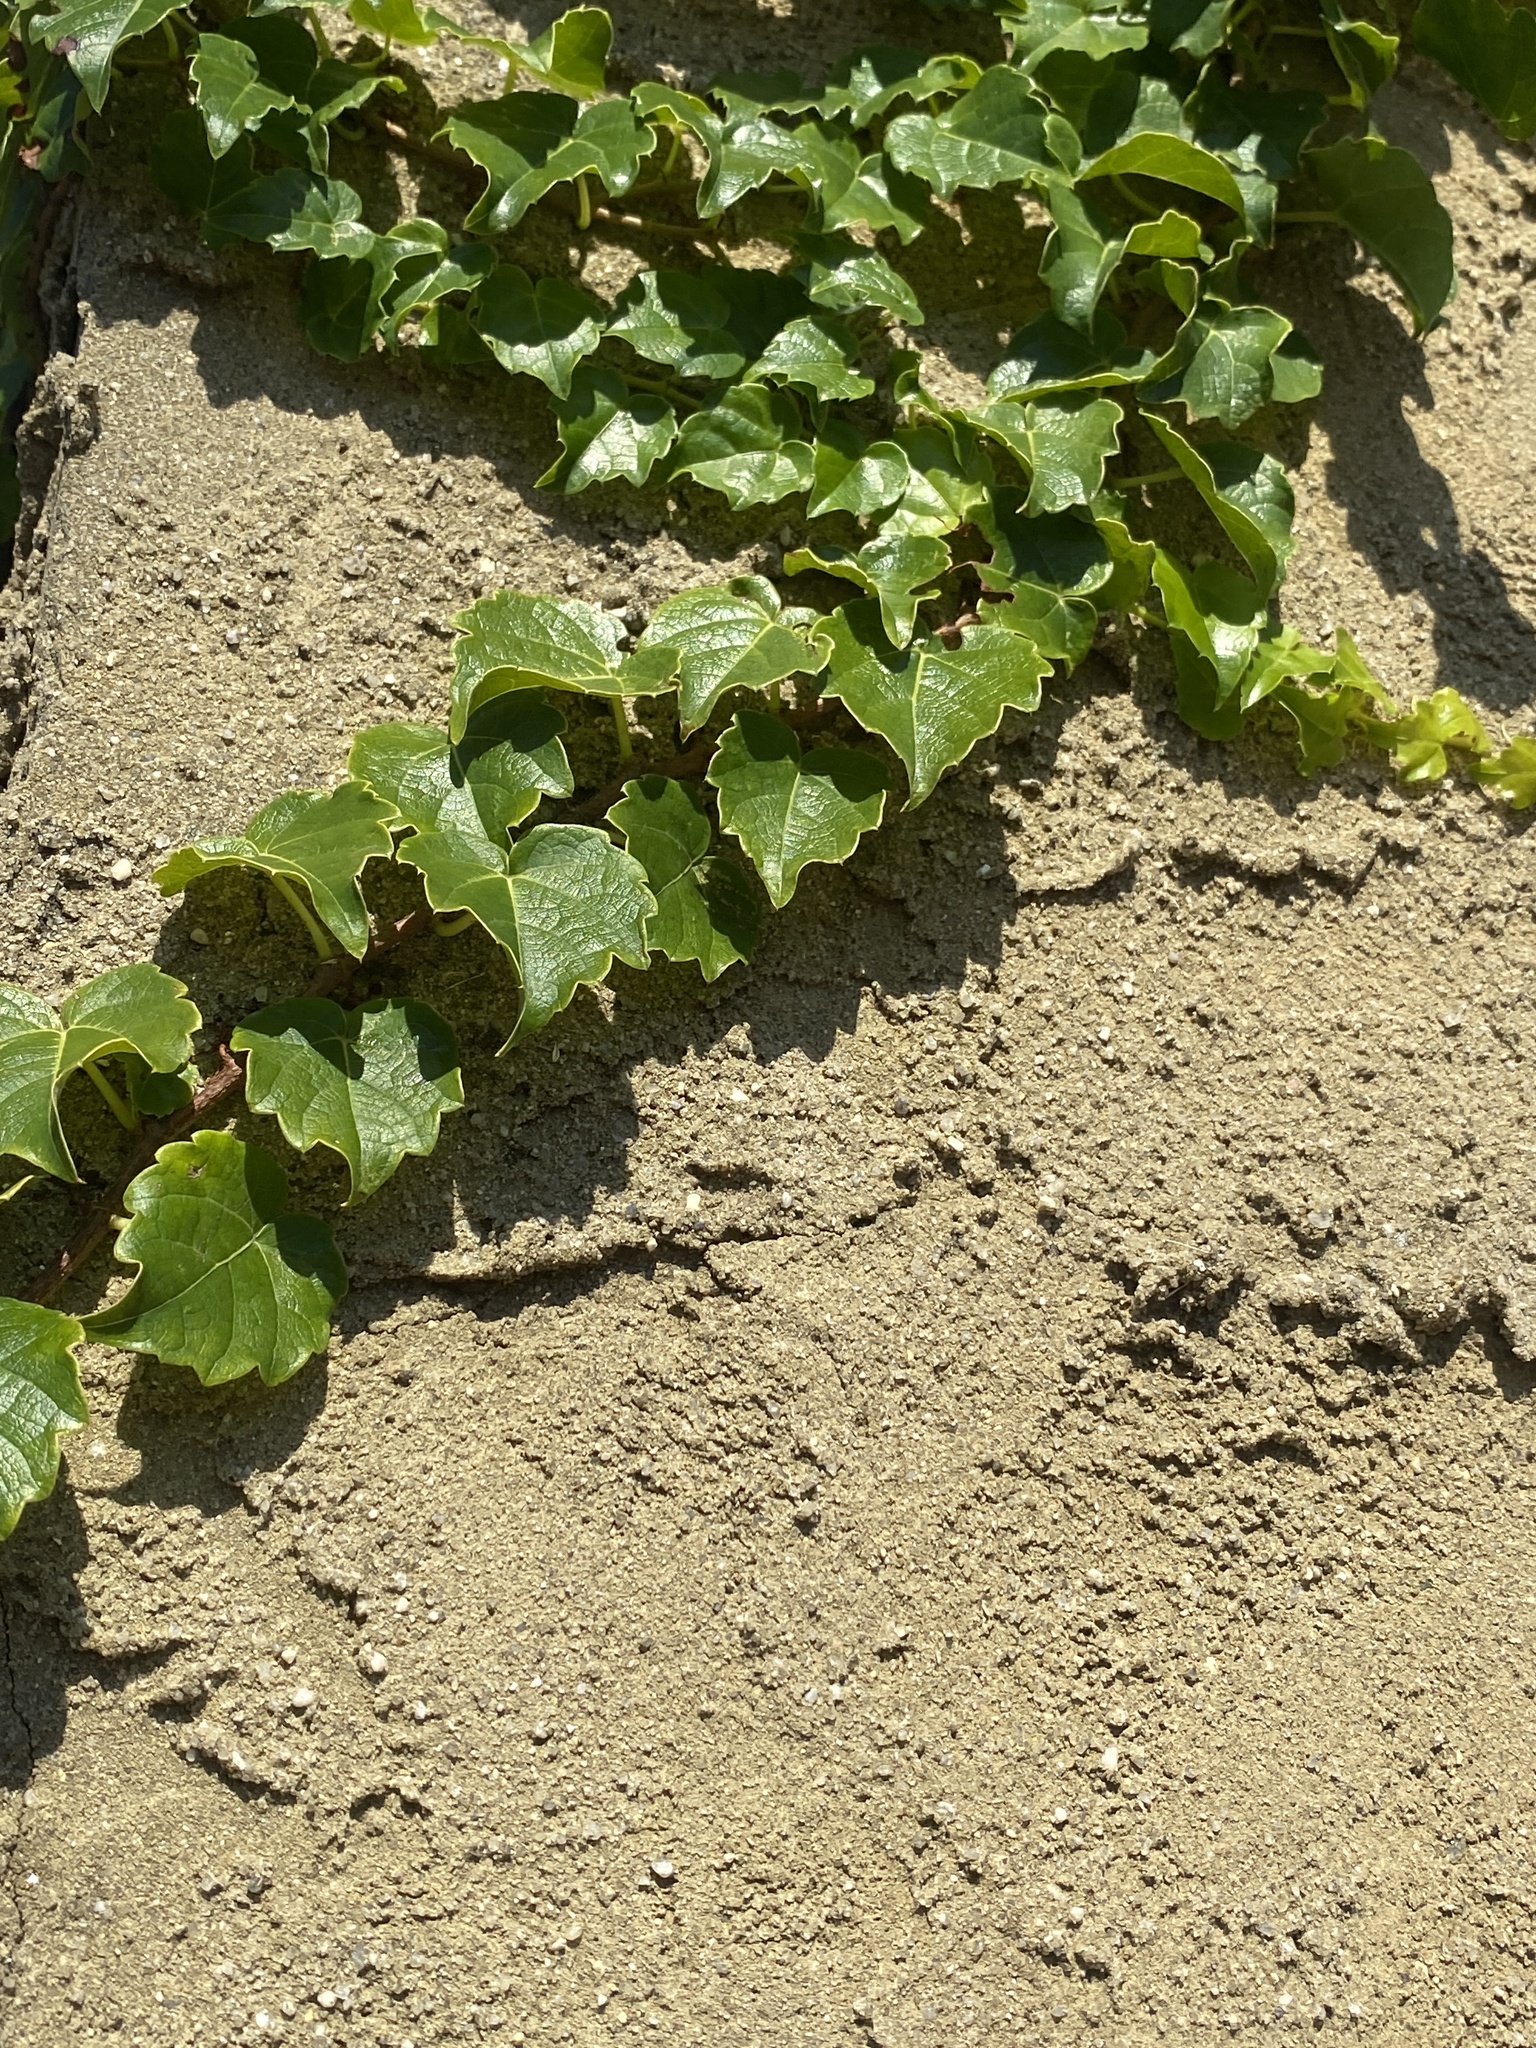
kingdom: Plantae
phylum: Tracheophyta
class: Magnoliopsida
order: Vitales
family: Vitaceae
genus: Parthenocissus
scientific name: Parthenocissus tricuspidata
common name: Boston ivy
